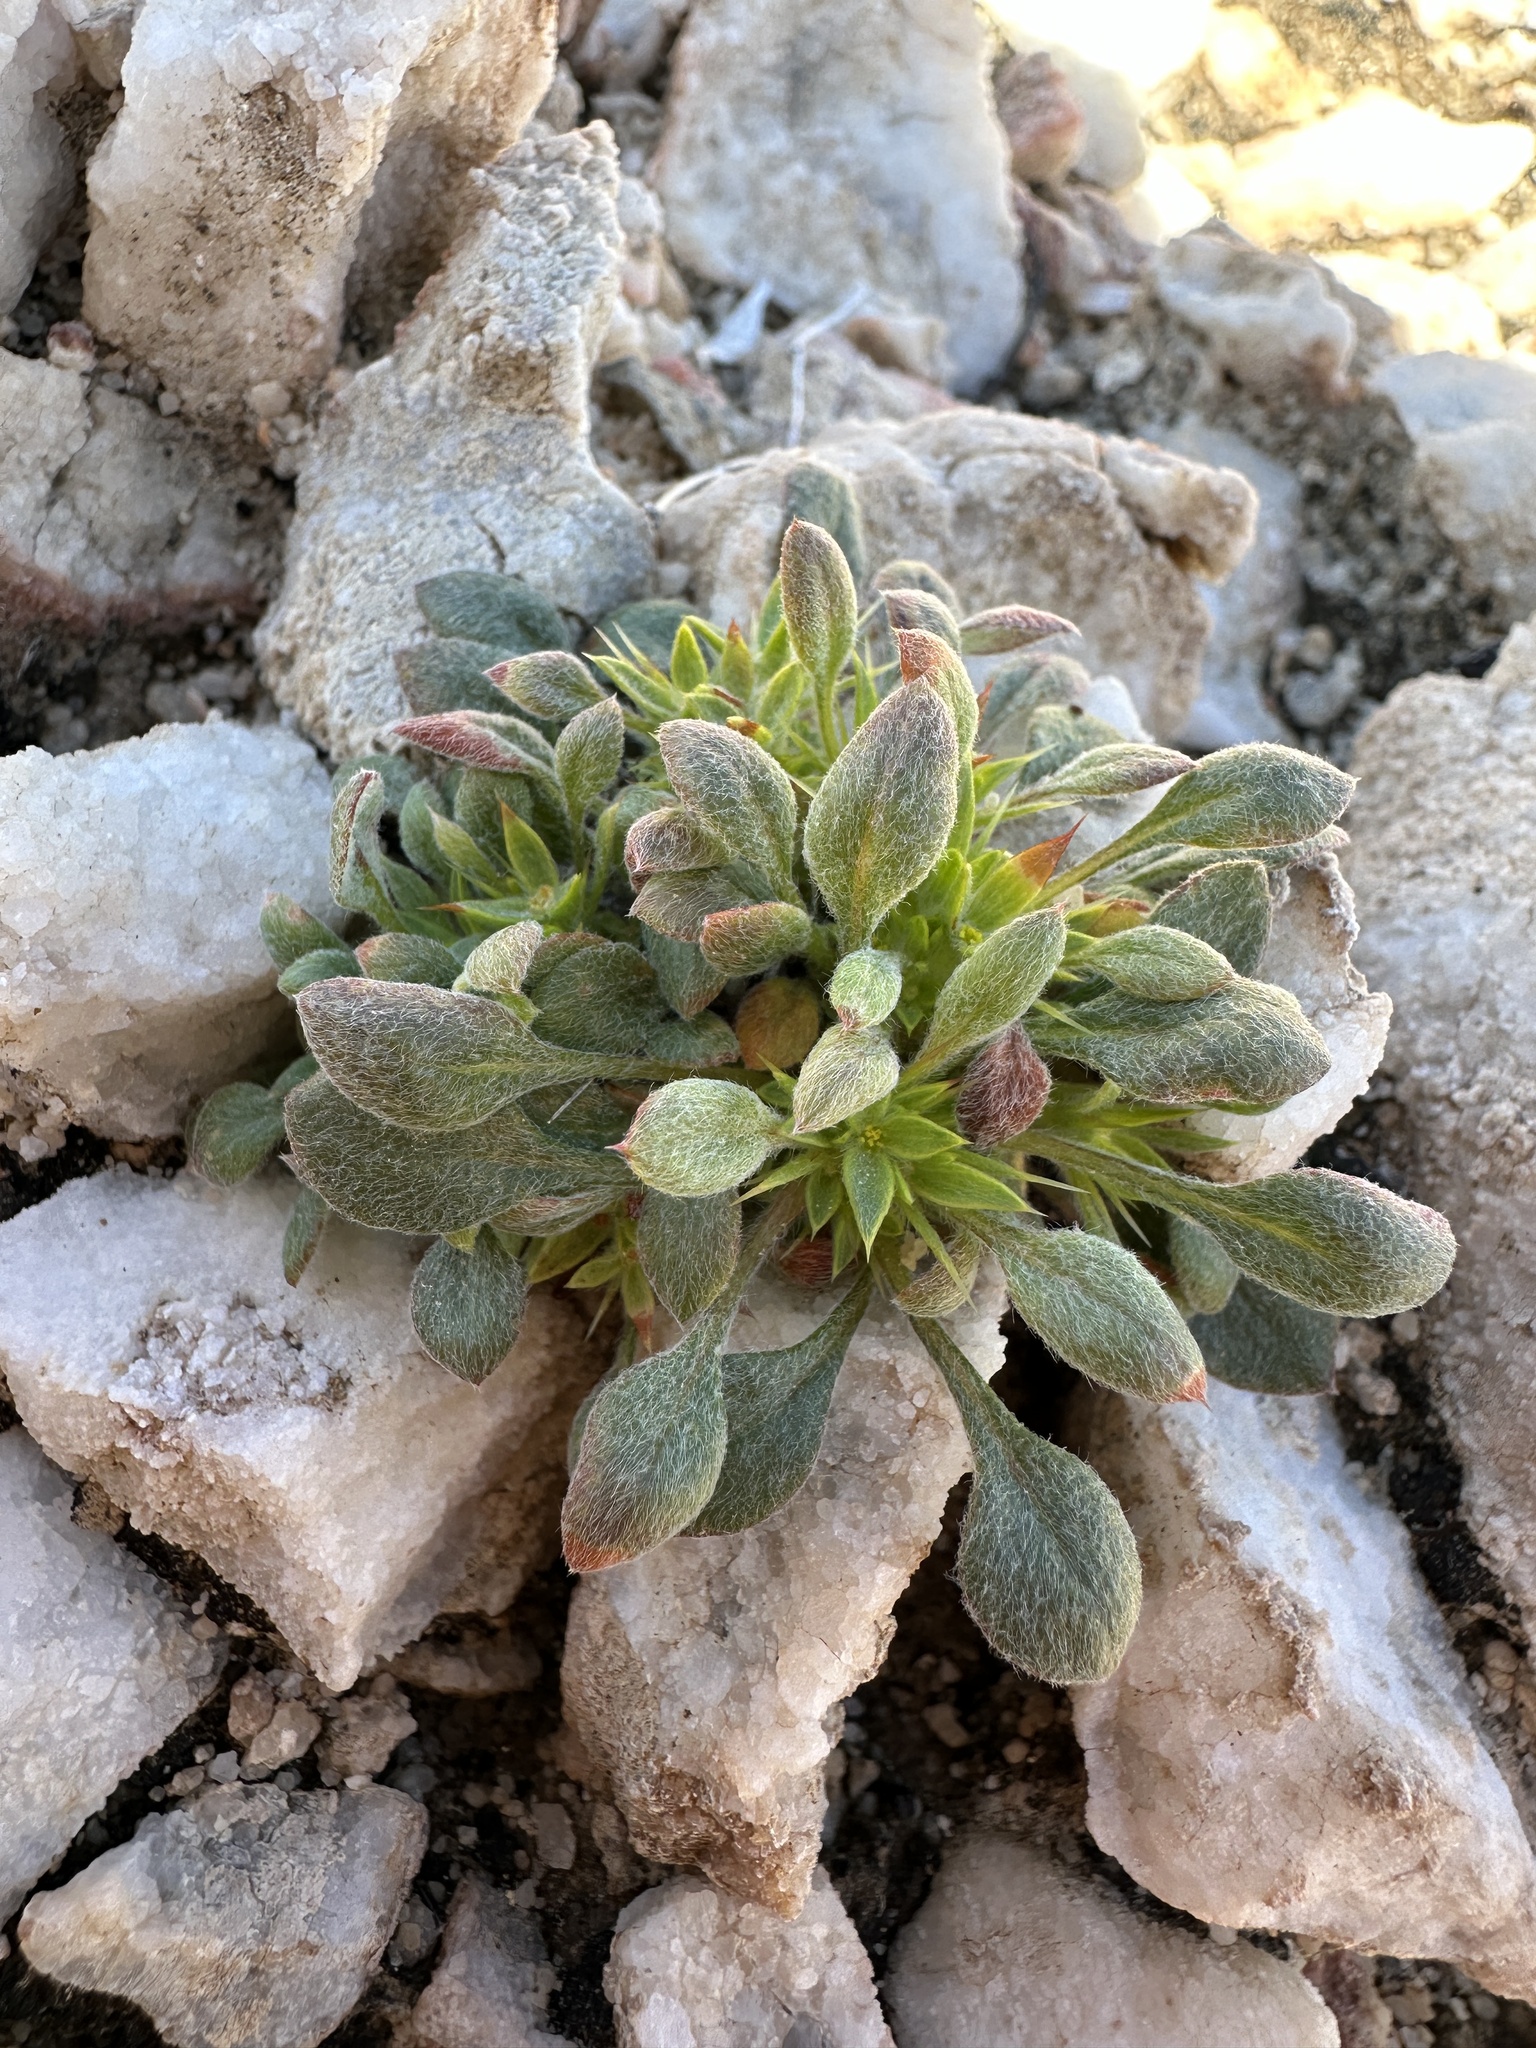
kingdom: Plantae
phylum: Tracheophyta
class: Magnoliopsida
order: Caryophyllales
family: Polygonaceae
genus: Chorizanthe
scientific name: Chorizanthe rigida
